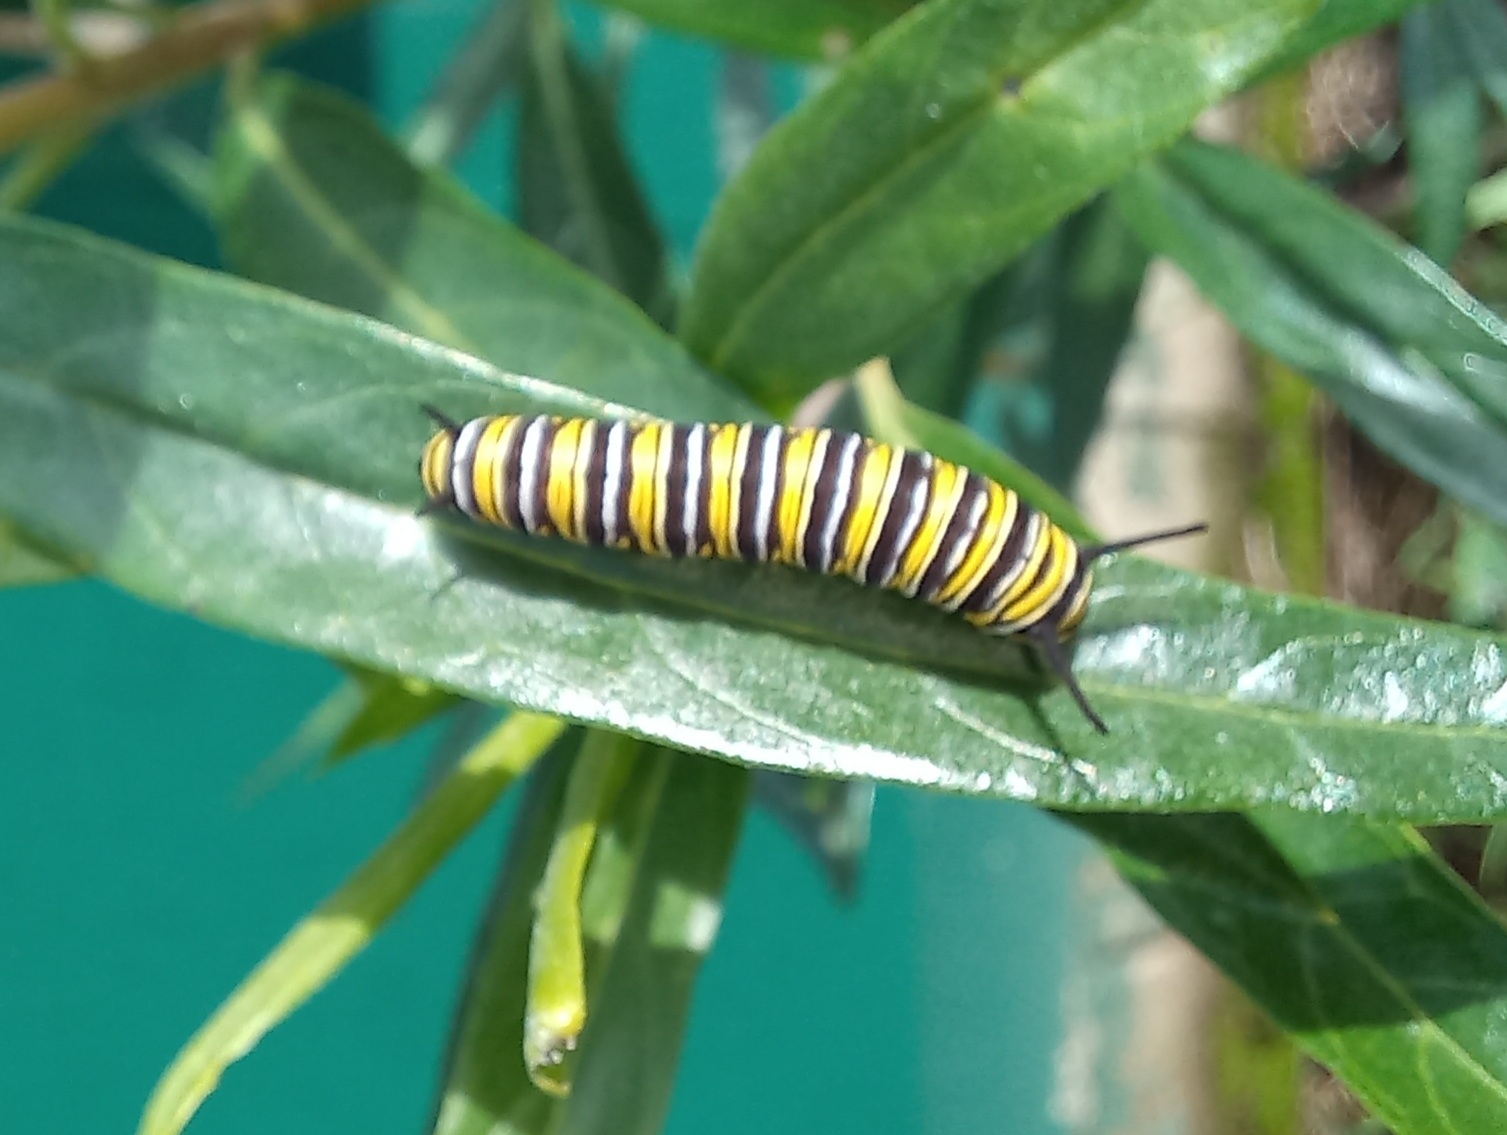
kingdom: Animalia
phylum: Arthropoda
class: Insecta
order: Lepidoptera
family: Nymphalidae
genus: Danaus
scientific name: Danaus plexippus
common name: Monarch
